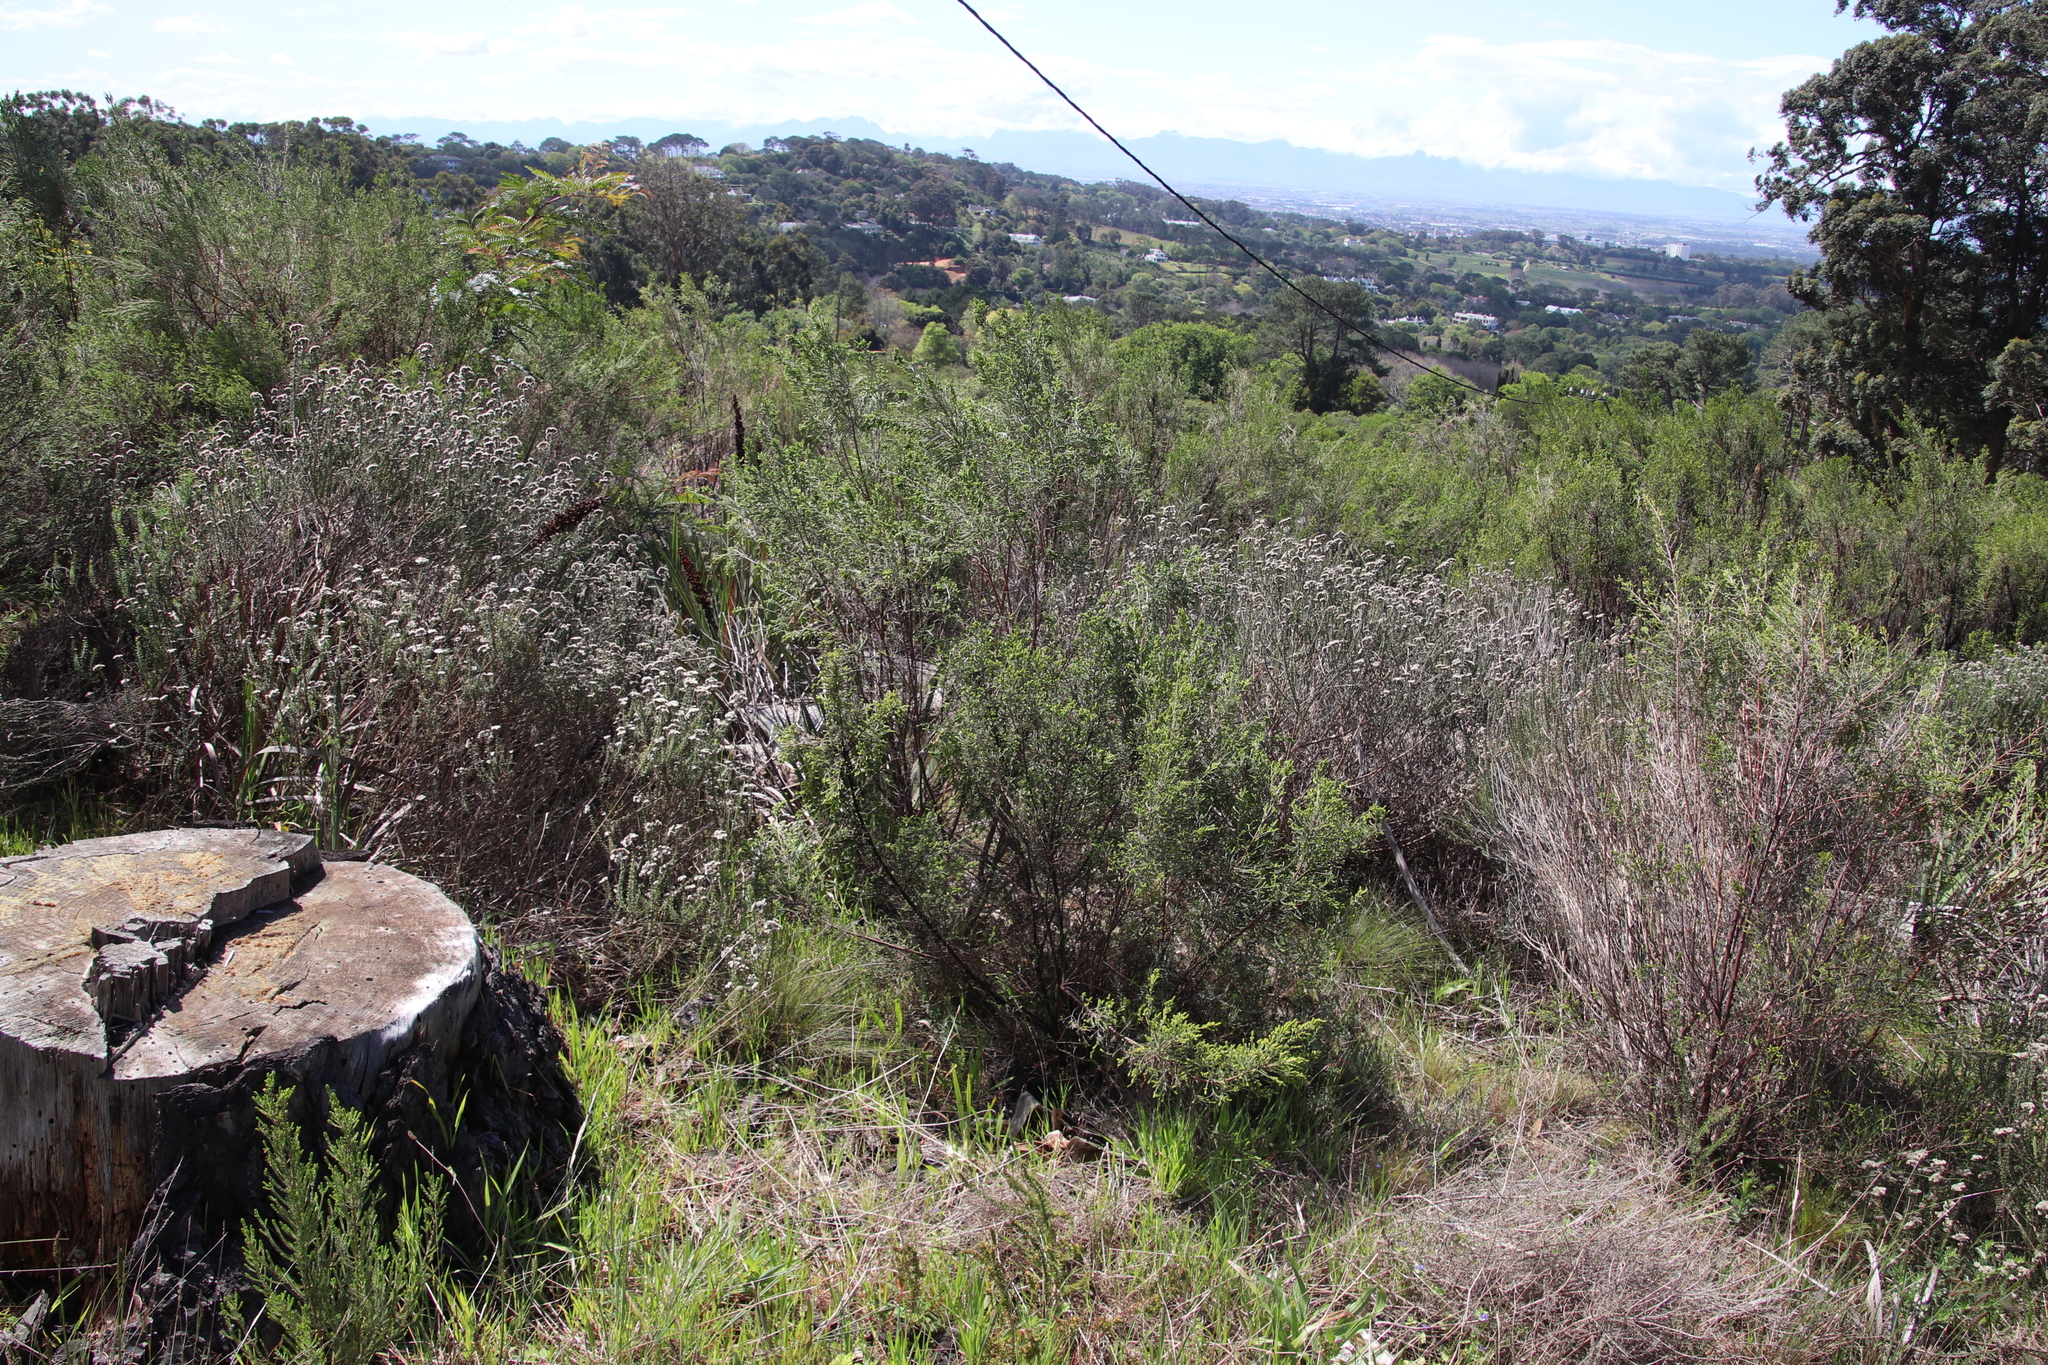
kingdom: Plantae
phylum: Tracheophyta
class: Magnoliopsida
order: Malvales
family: Thymelaeaceae
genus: Passerina
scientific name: Passerina corymbosa
